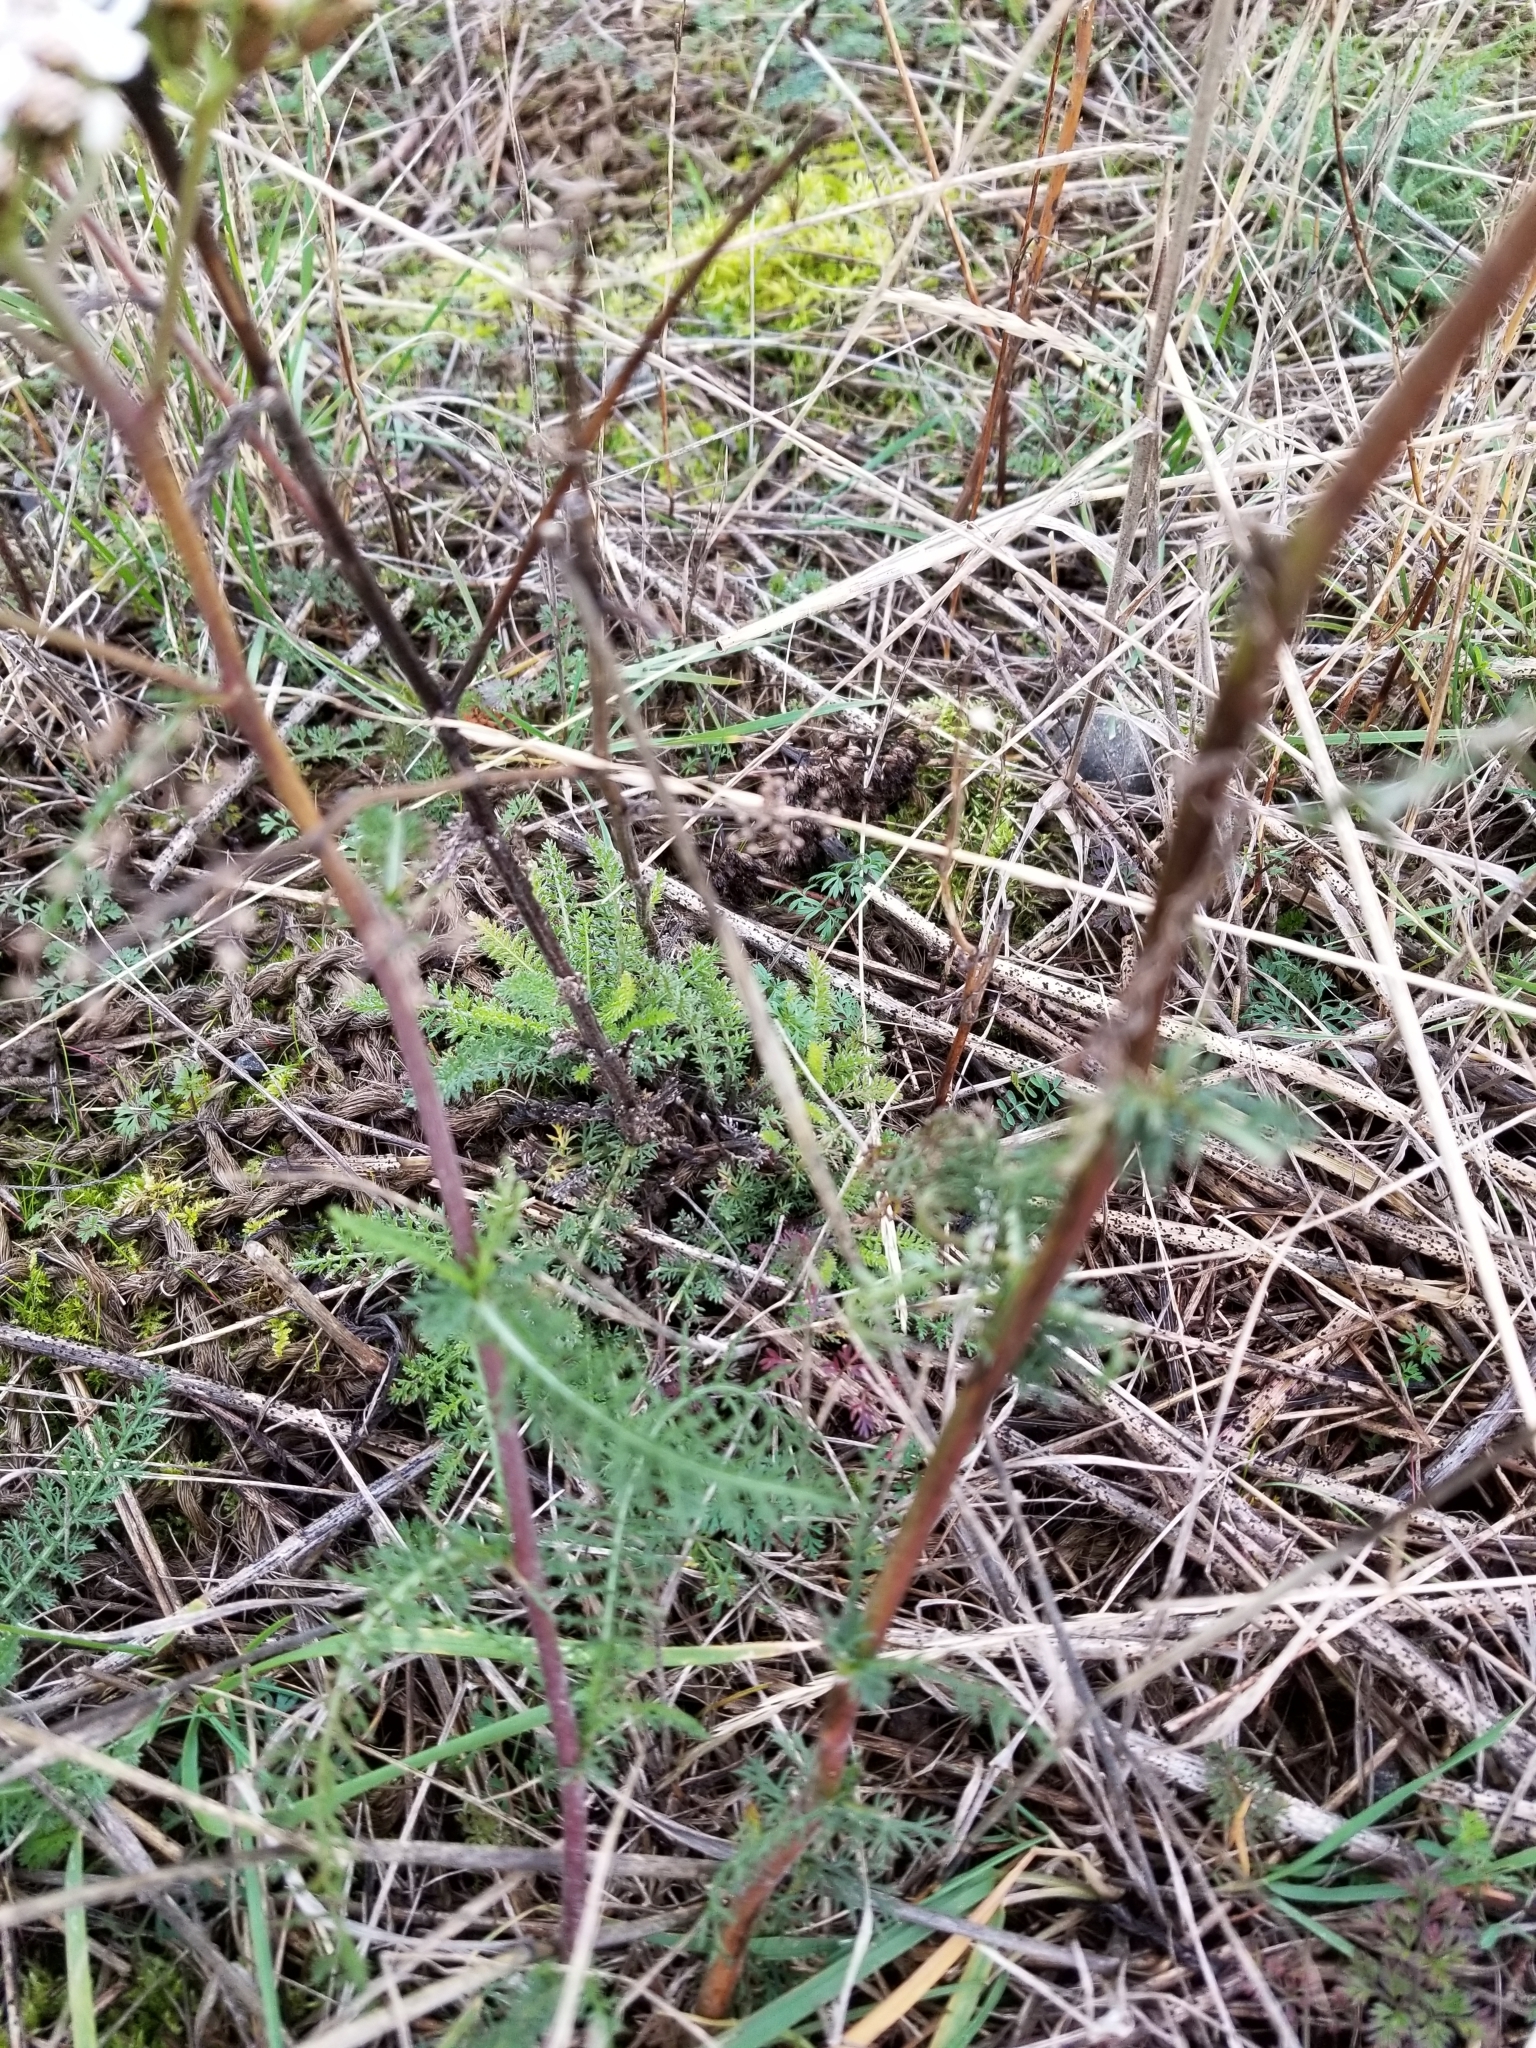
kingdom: Plantae
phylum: Tracheophyta
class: Magnoliopsida
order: Asterales
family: Asteraceae
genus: Achillea
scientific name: Achillea millefolium
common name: Yarrow
